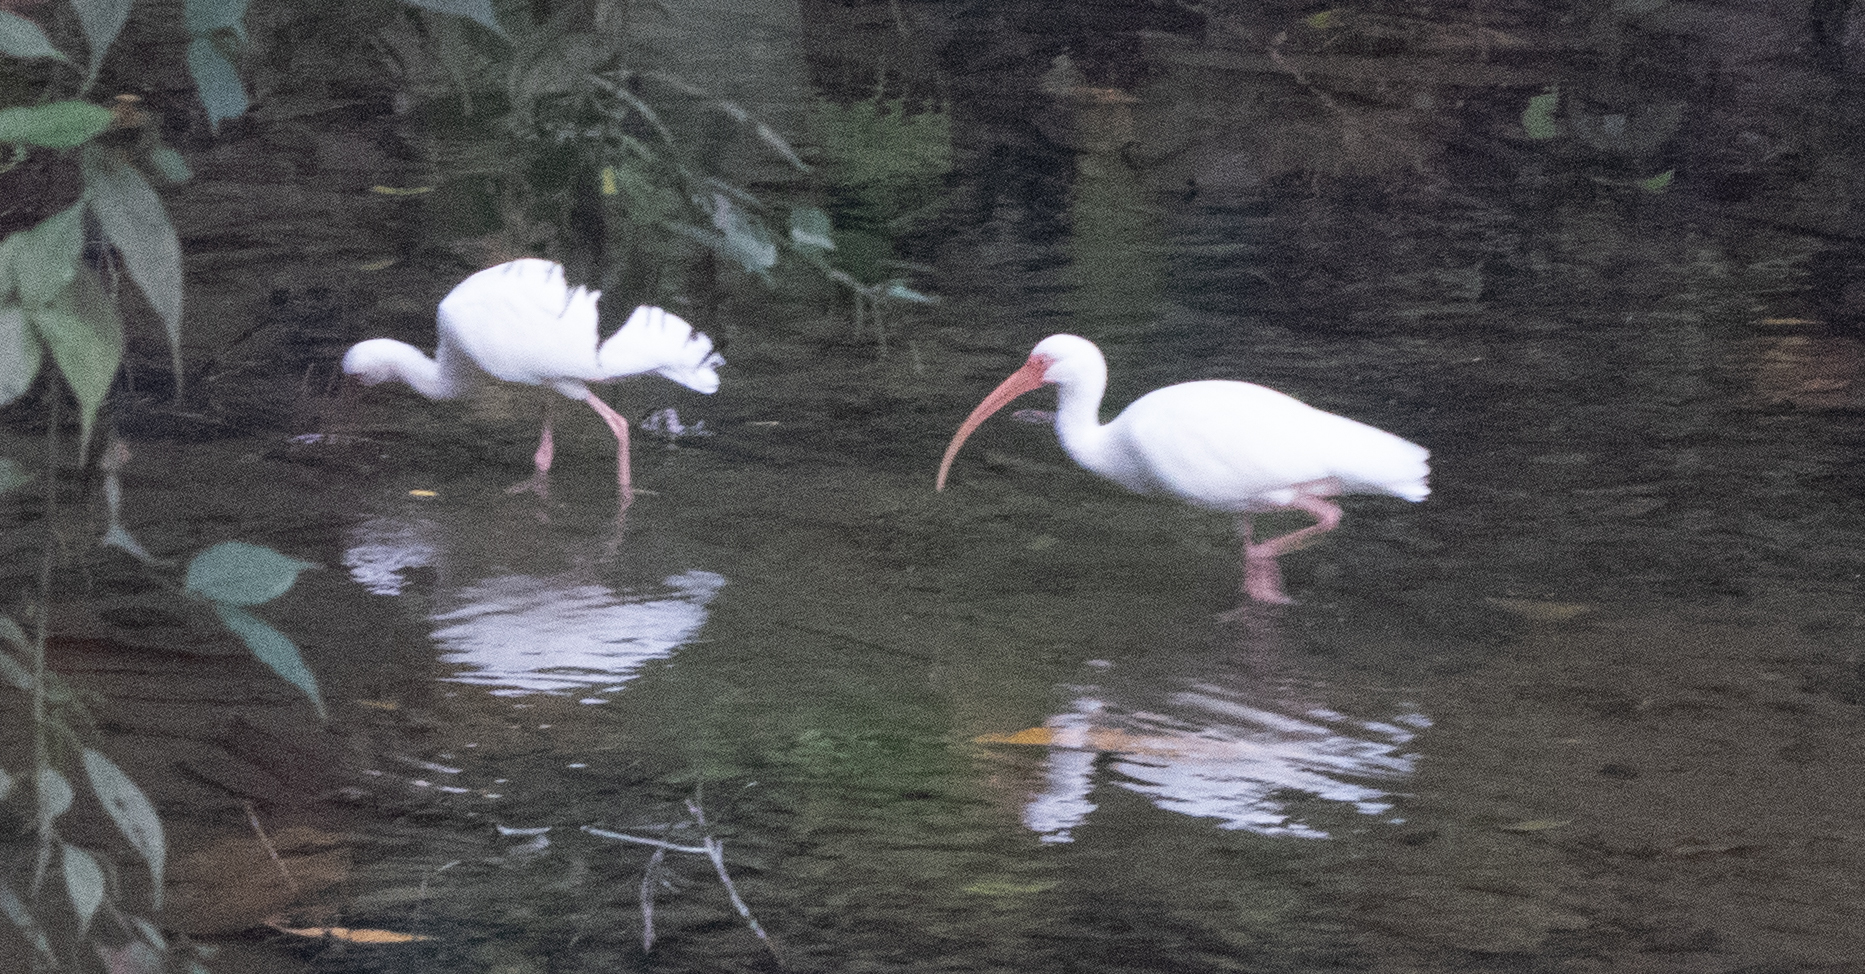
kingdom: Animalia
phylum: Chordata
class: Aves
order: Pelecaniformes
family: Threskiornithidae
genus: Eudocimus
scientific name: Eudocimus albus
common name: White ibis
